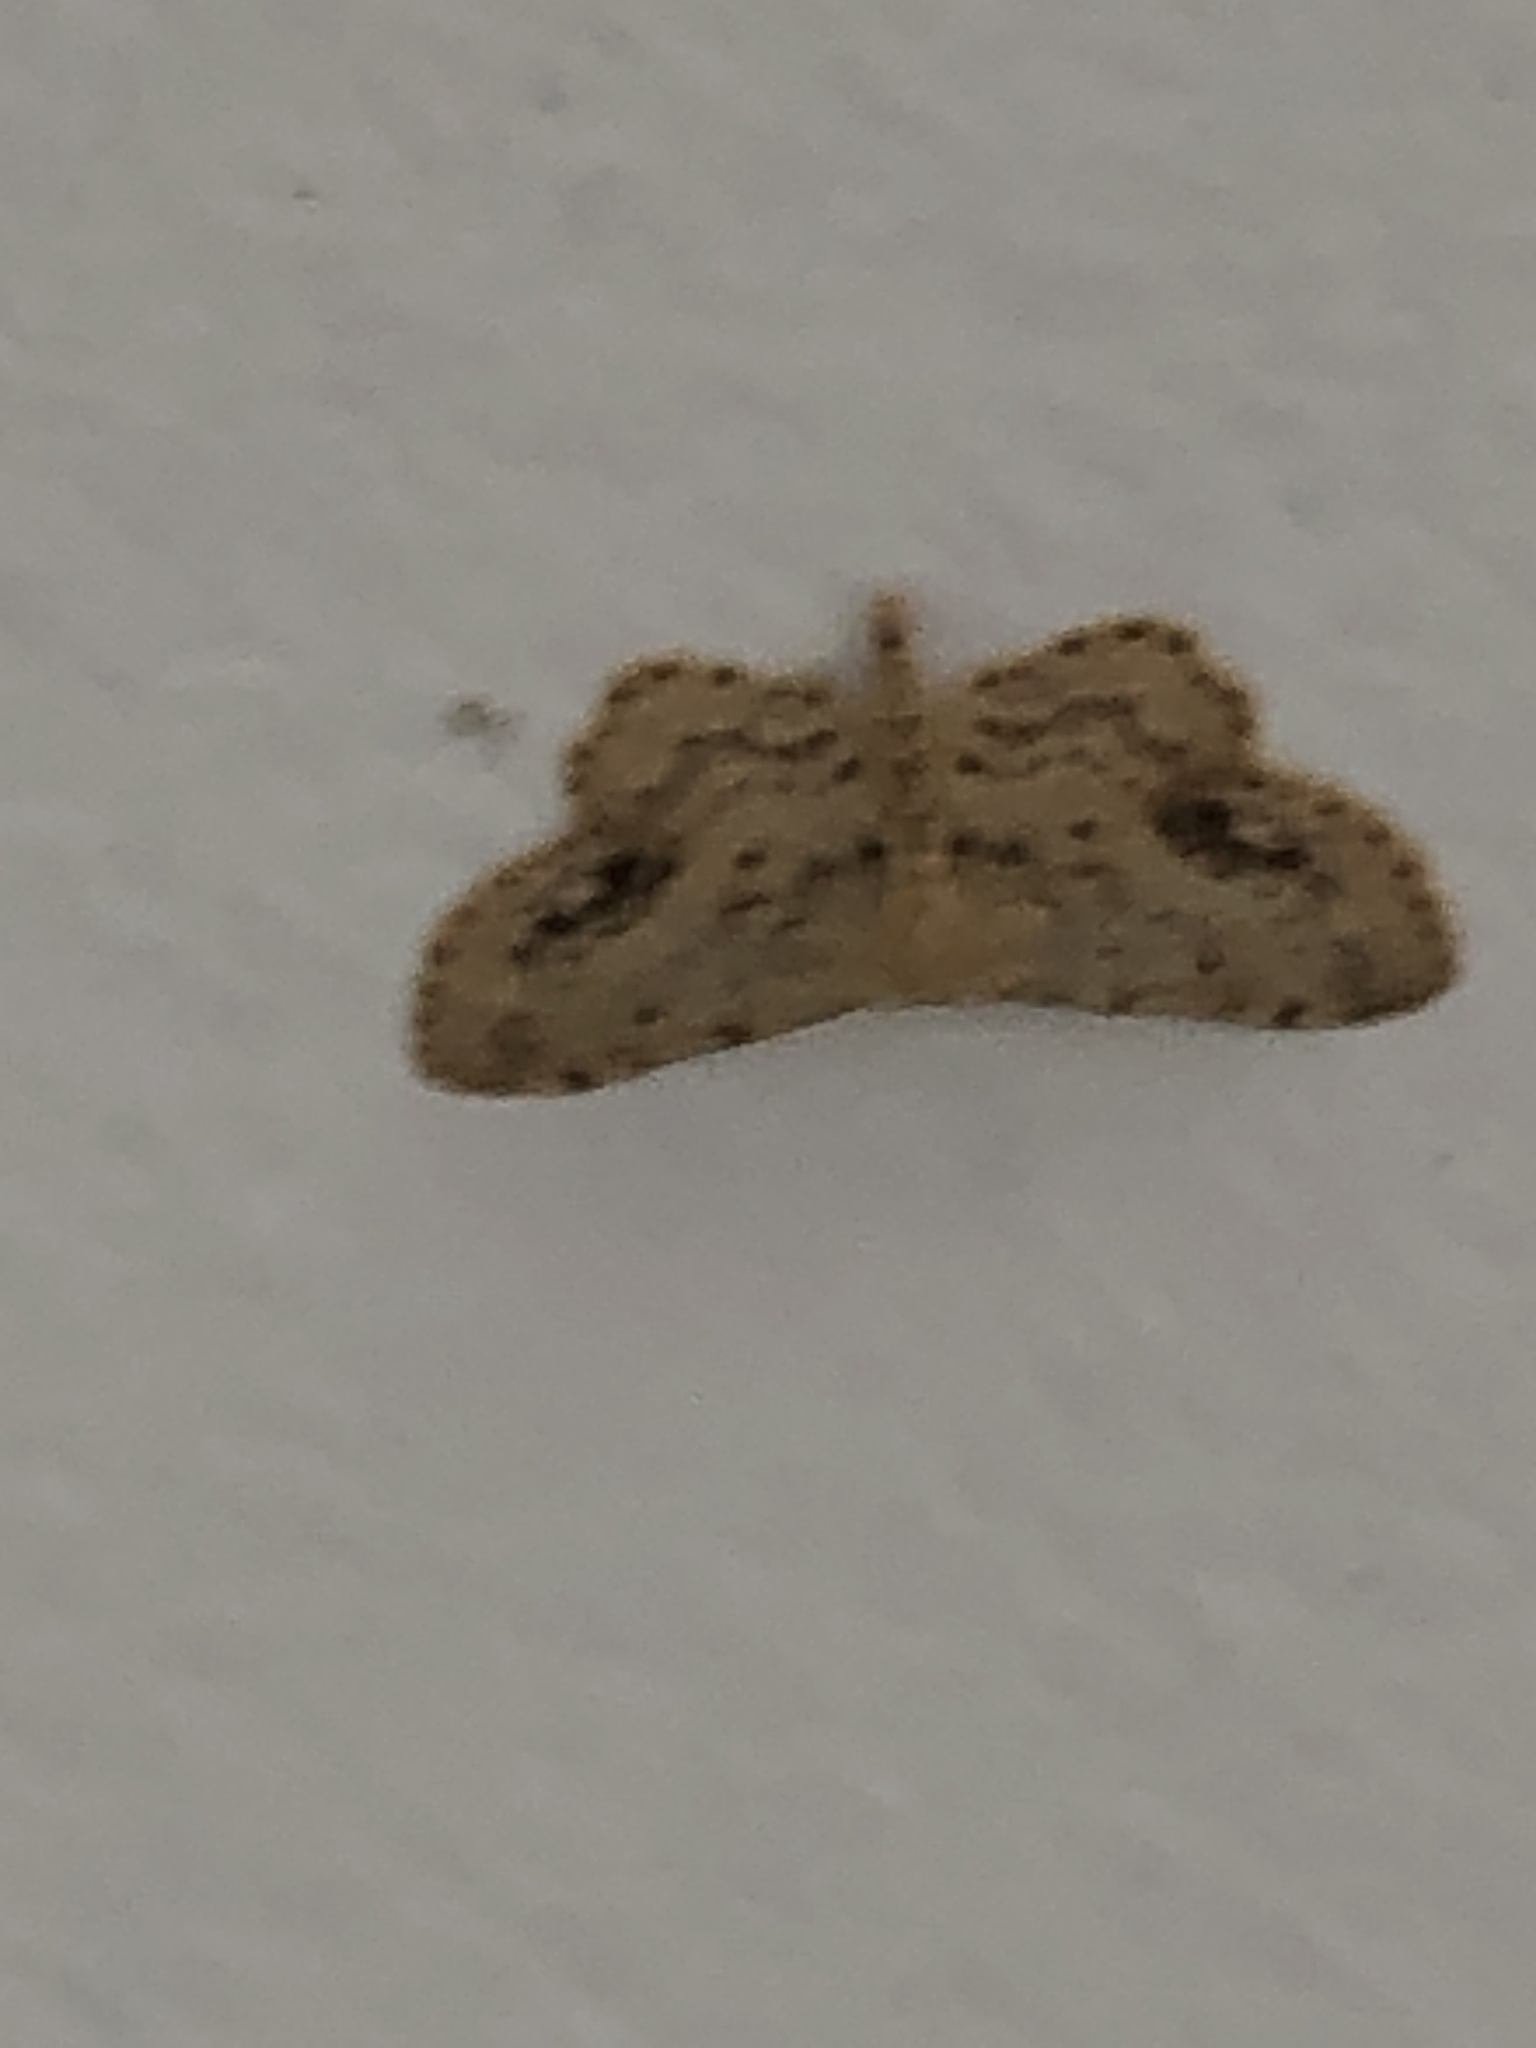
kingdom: Animalia
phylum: Arthropoda
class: Insecta
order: Lepidoptera
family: Geometridae
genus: Idaea
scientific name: Idaea dimidiata
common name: Single-dotted wave
